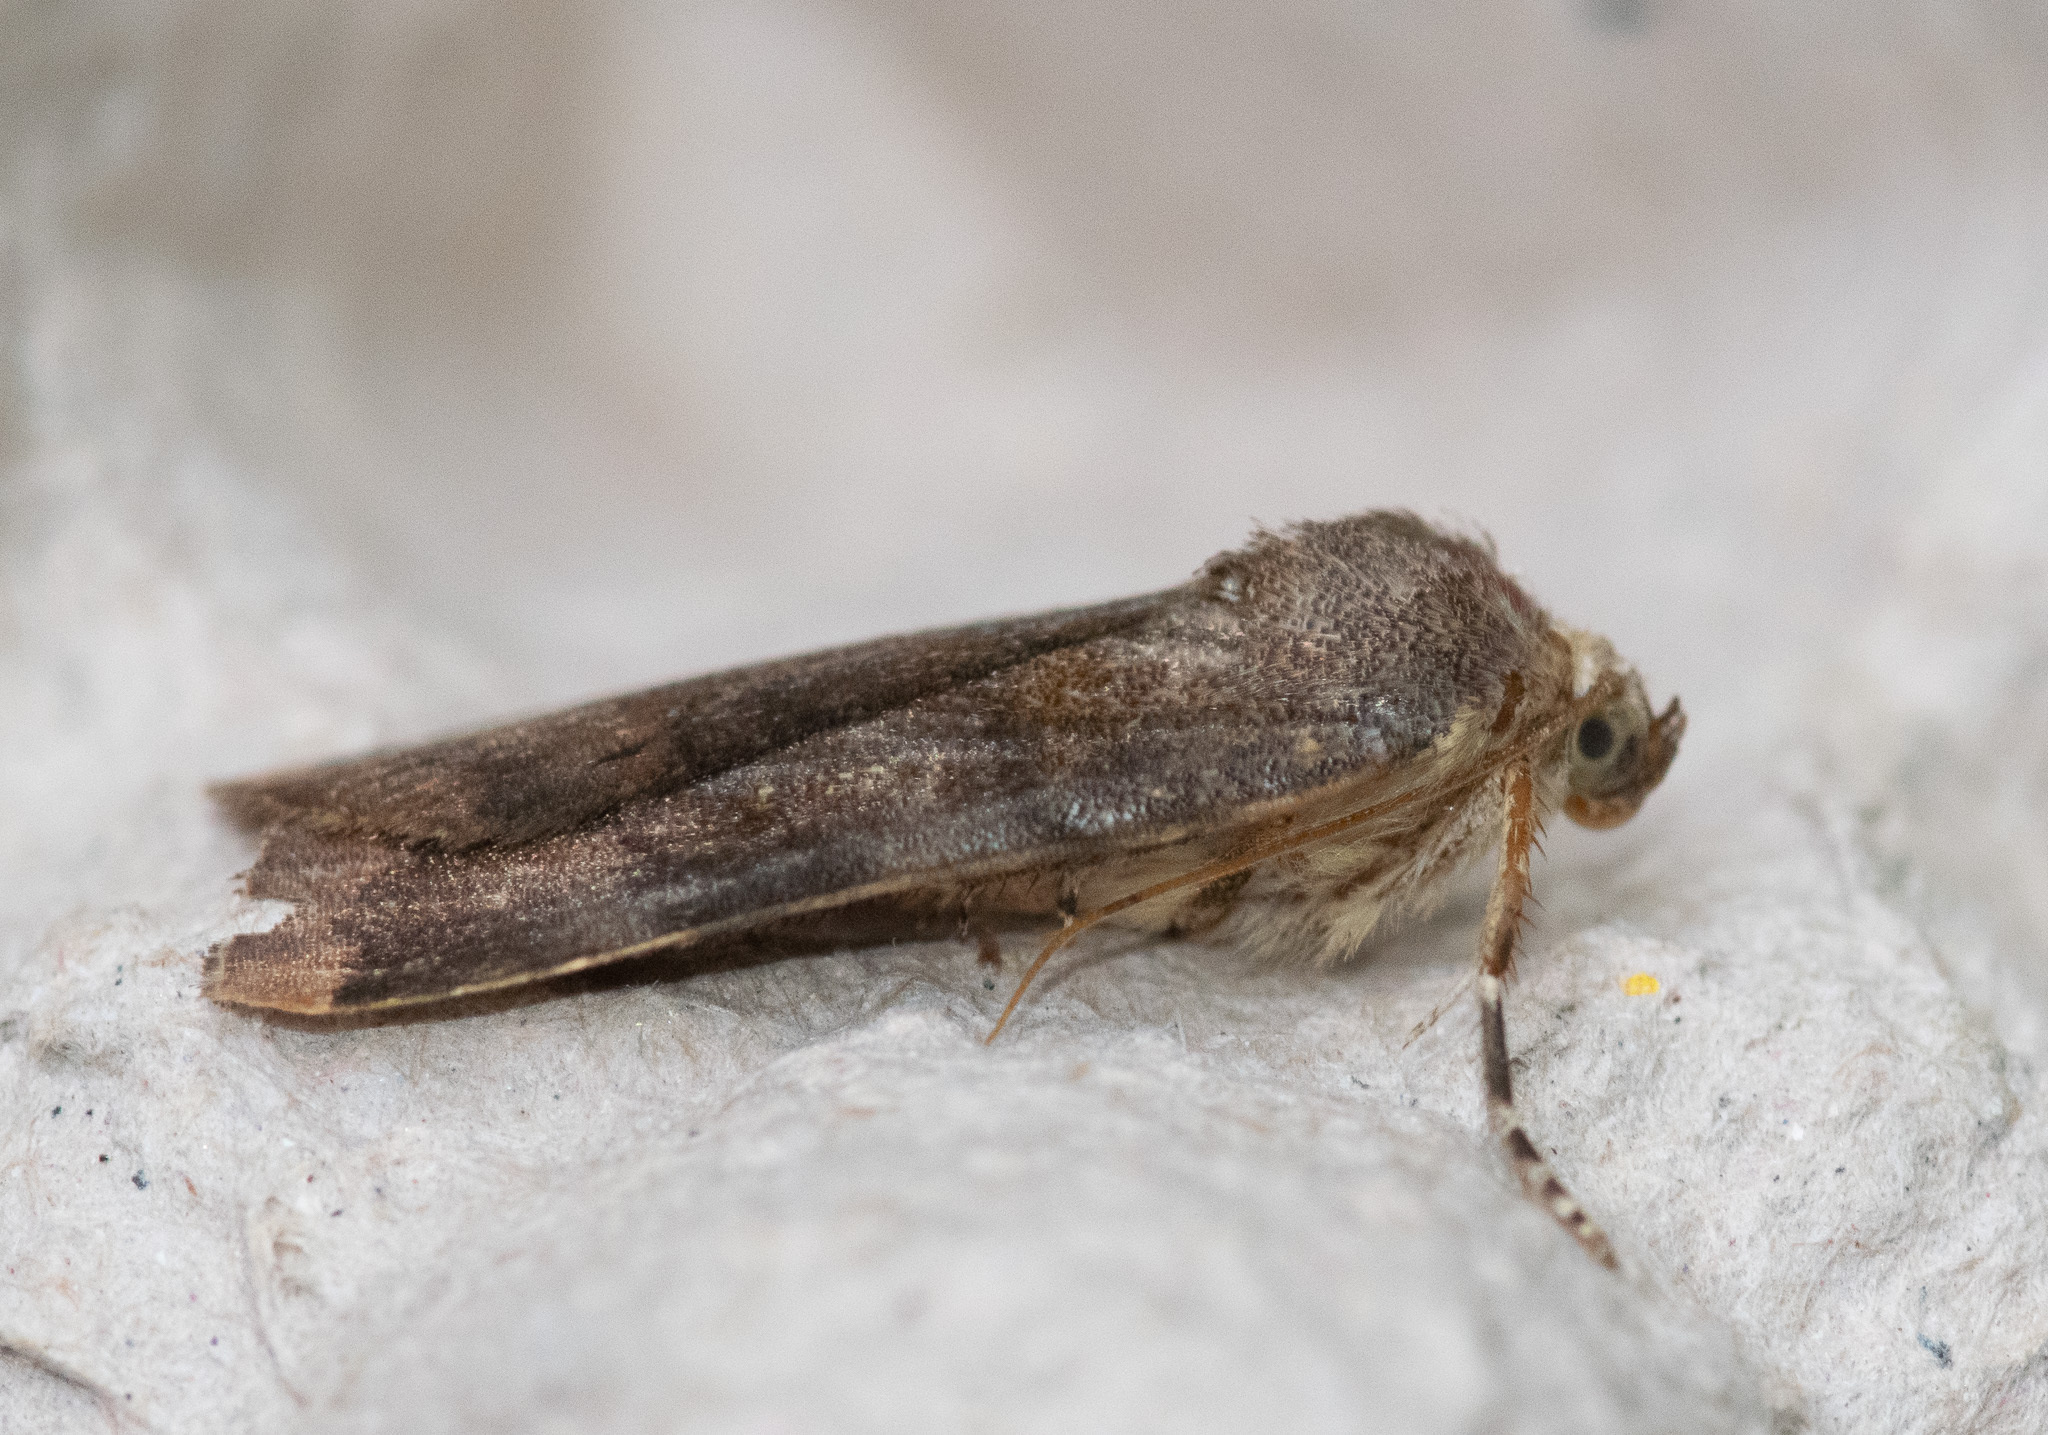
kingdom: Animalia
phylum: Arthropoda
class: Insecta
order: Lepidoptera
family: Noctuidae
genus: Noctua
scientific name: Noctua
